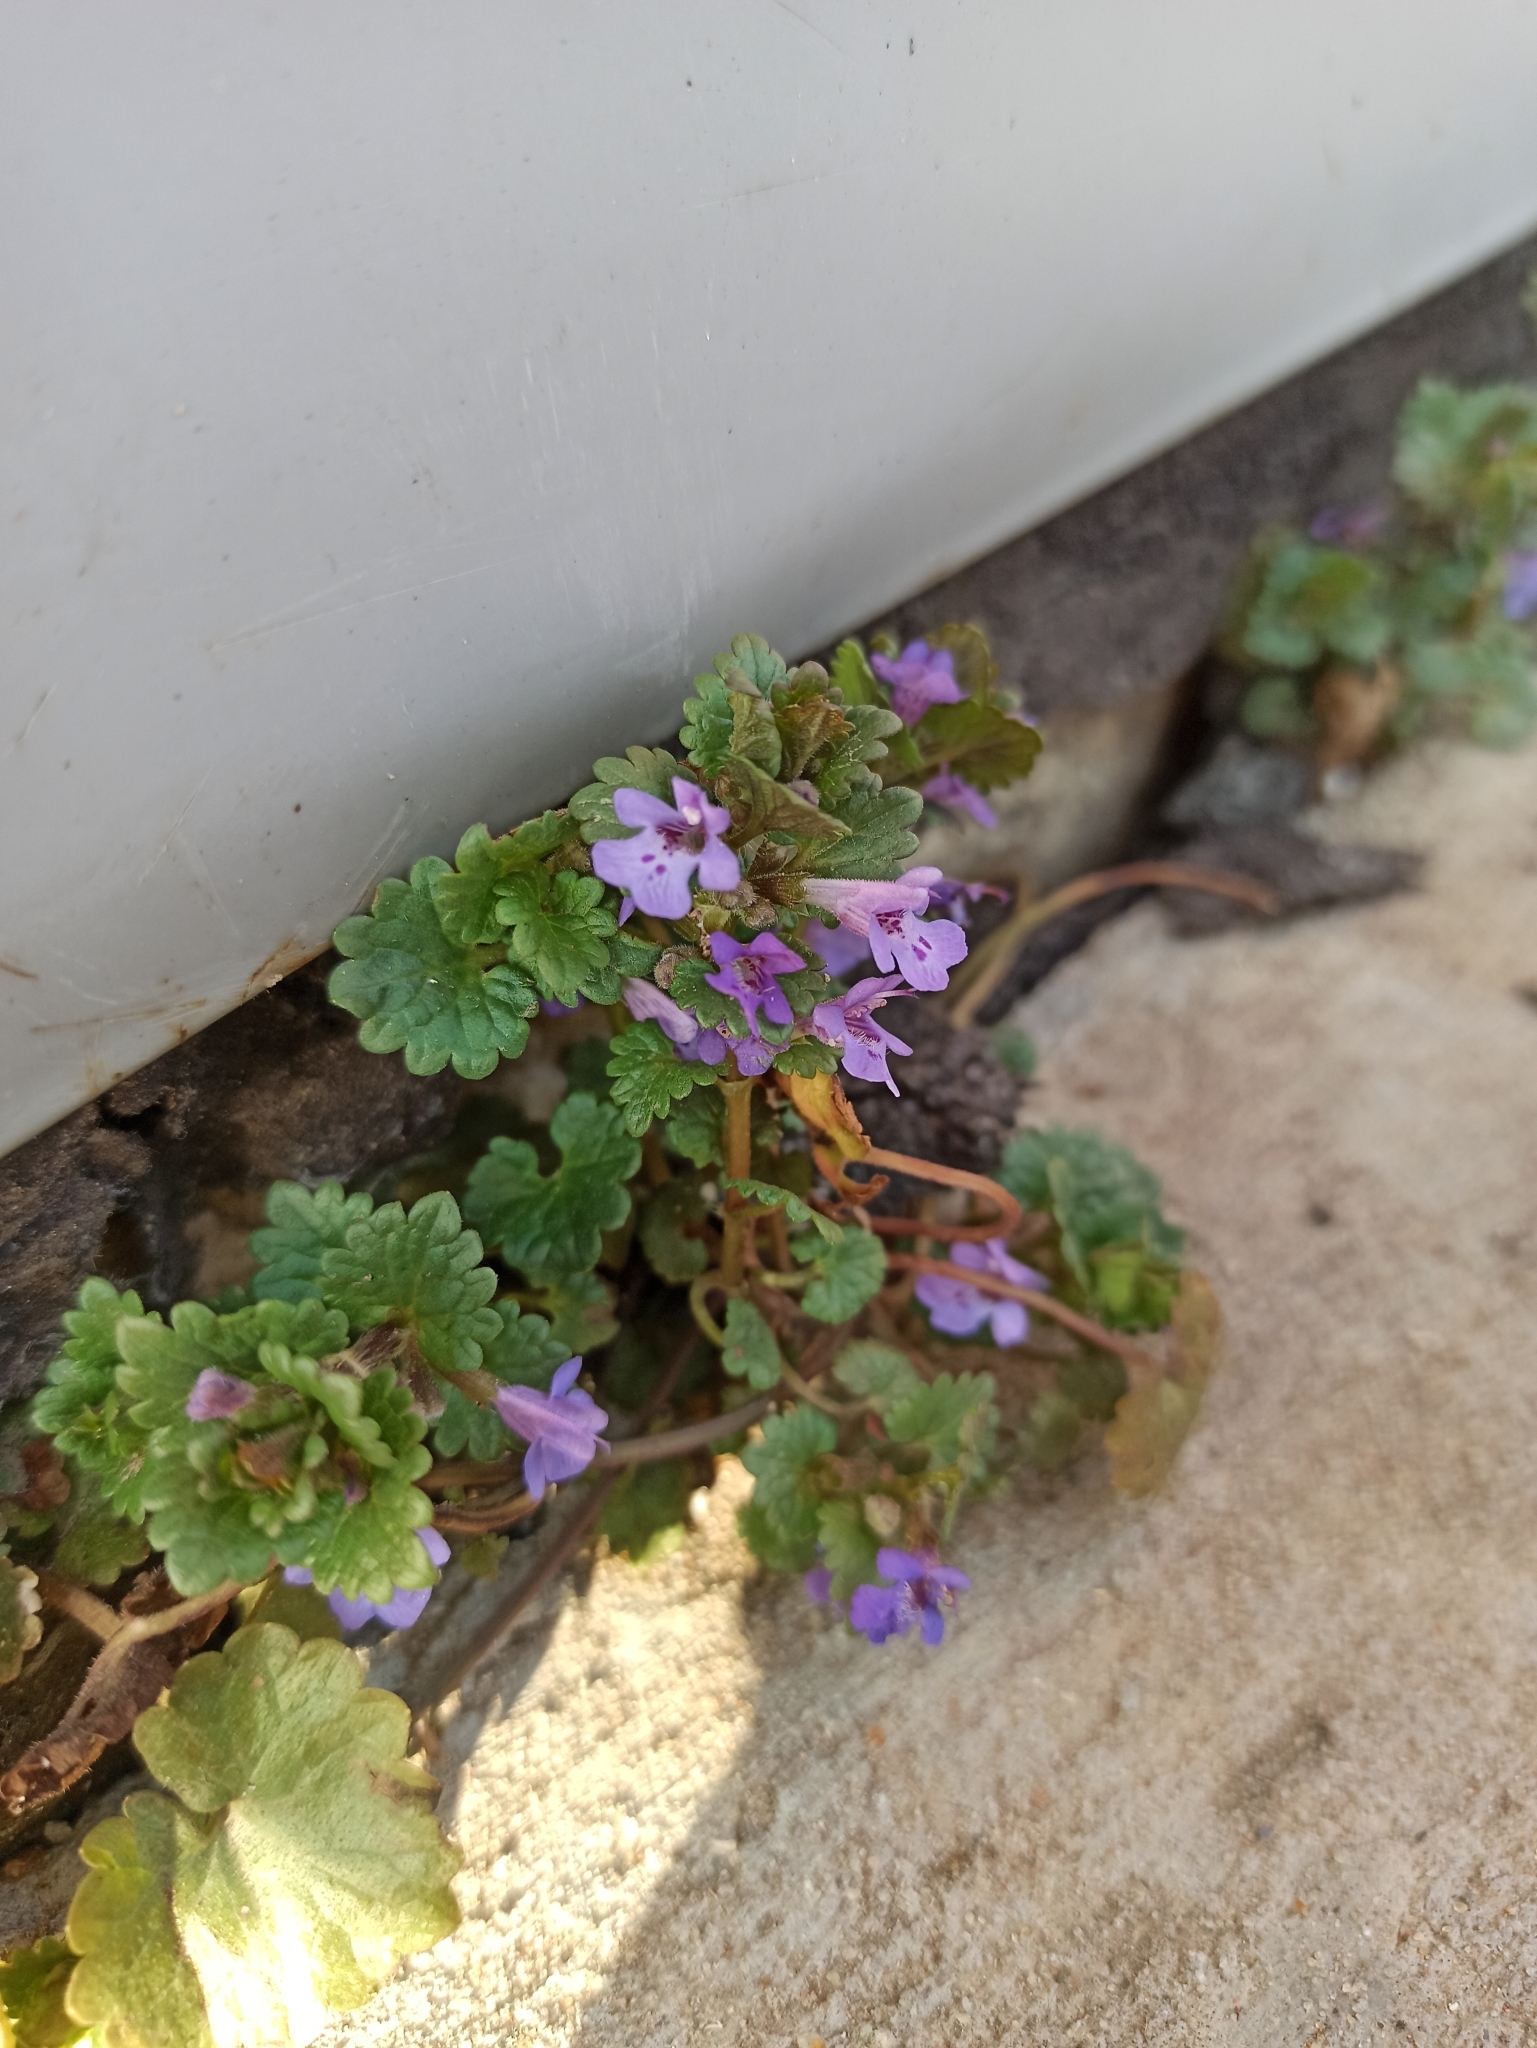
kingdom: Plantae
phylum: Tracheophyta
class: Magnoliopsida
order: Lamiales
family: Lamiaceae
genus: Glechoma
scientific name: Glechoma hederacea
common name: Ground ivy
